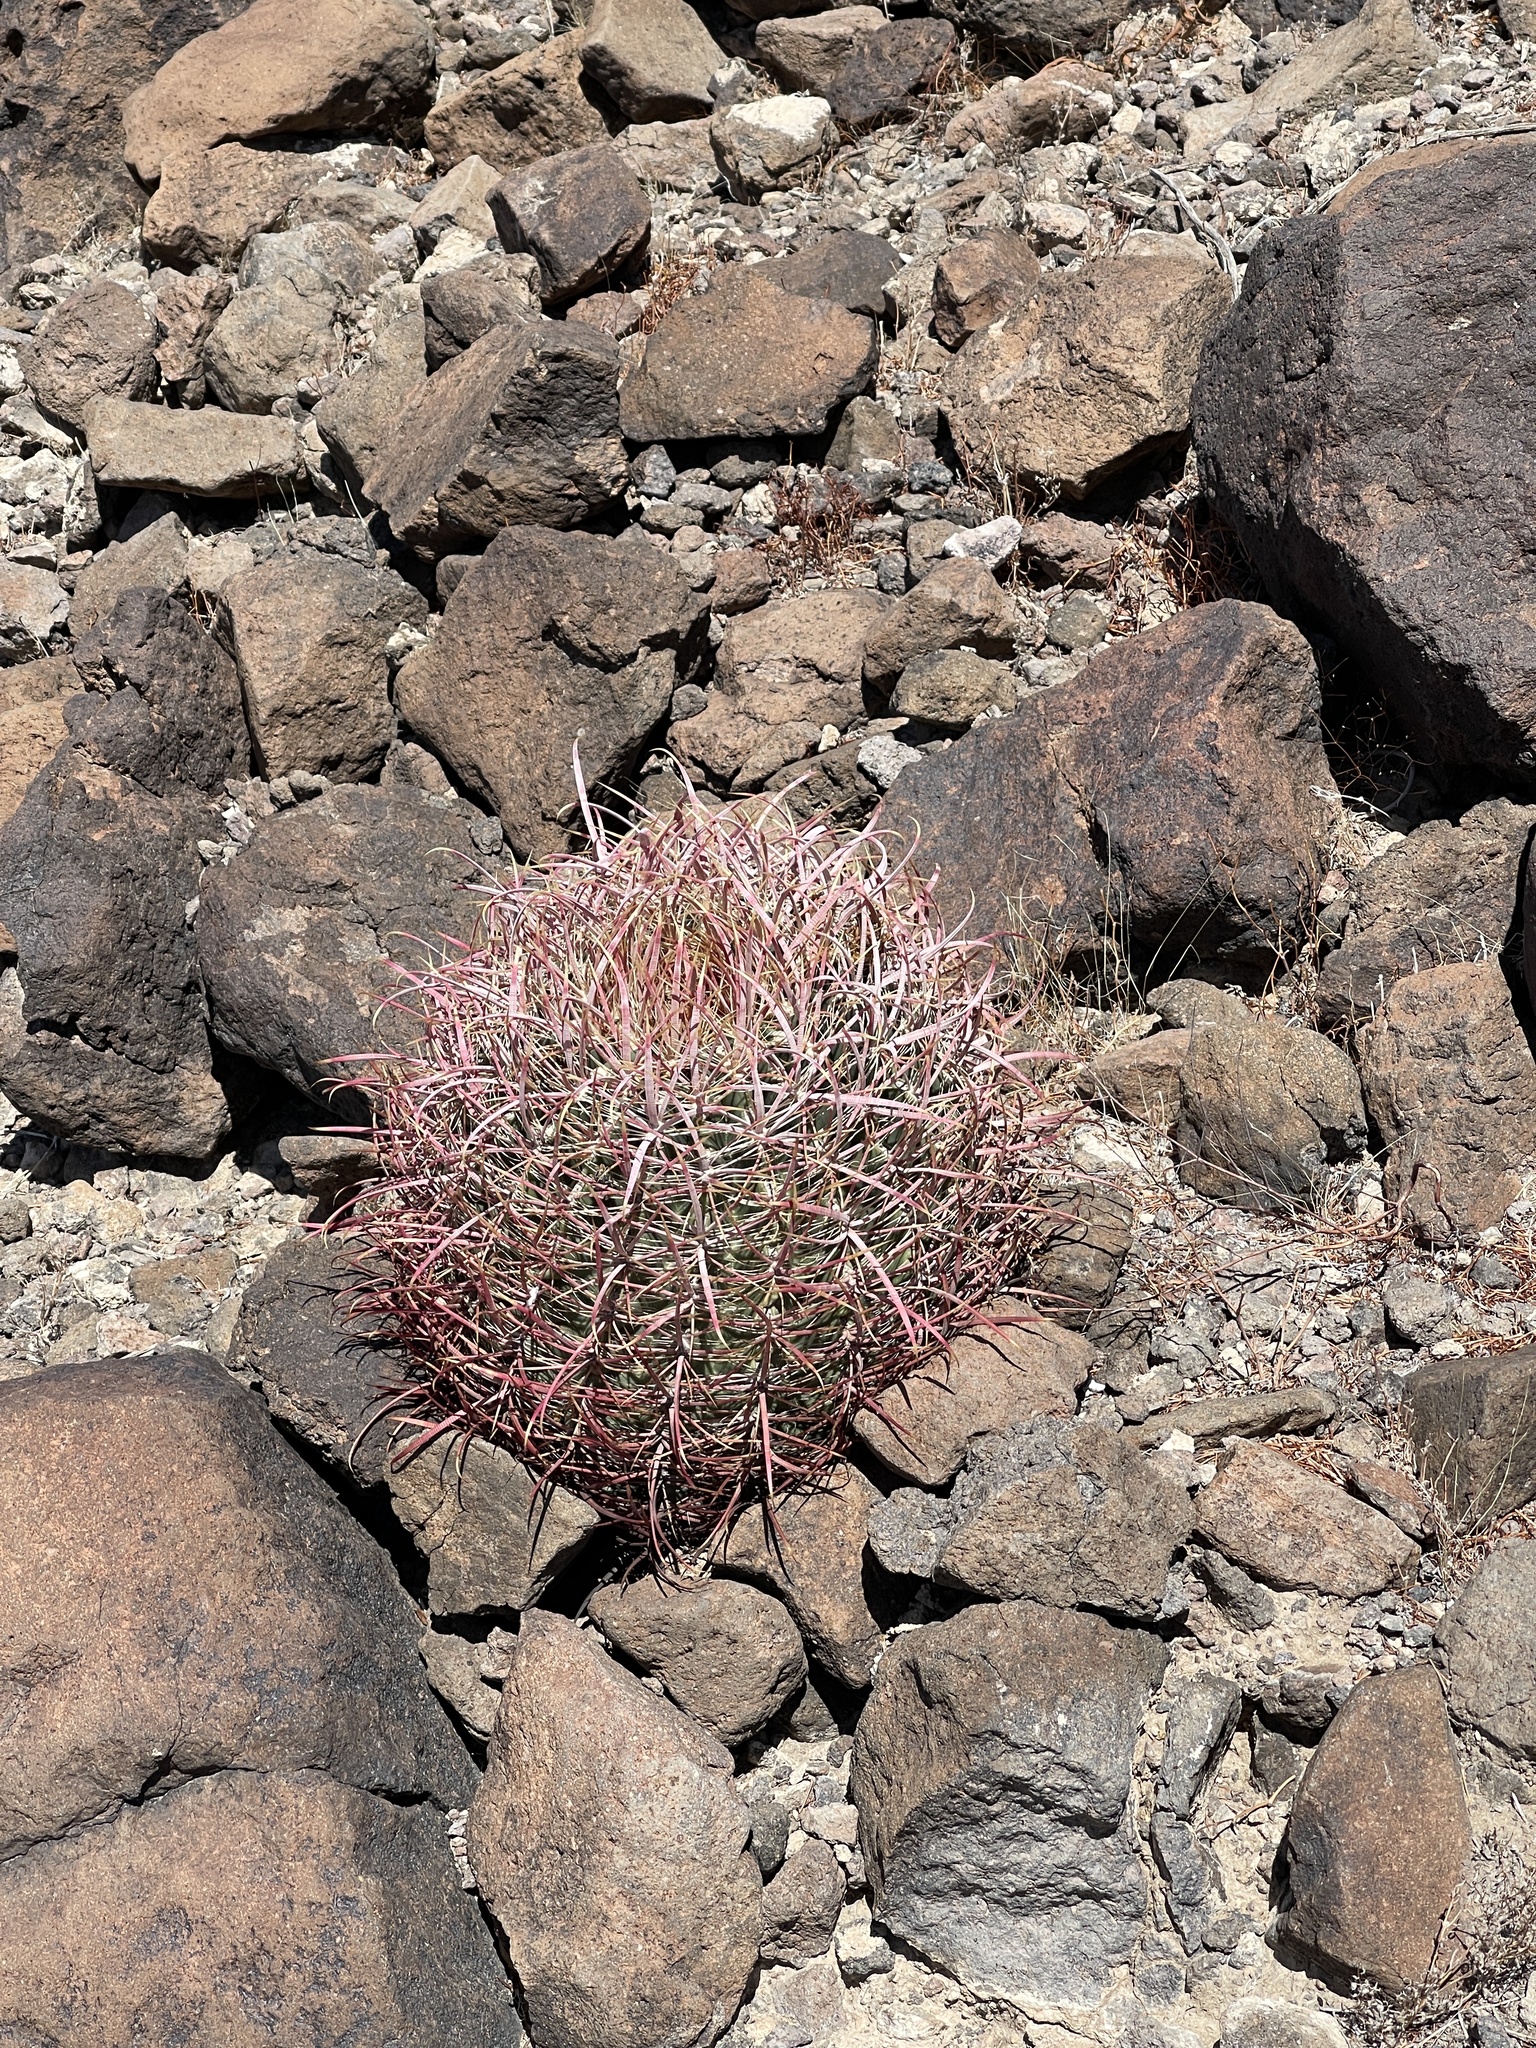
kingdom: Plantae
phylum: Tracheophyta
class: Magnoliopsida
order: Caryophyllales
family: Cactaceae
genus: Ferocactus
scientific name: Ferocactus cylindraceus
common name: California barrel cactus
